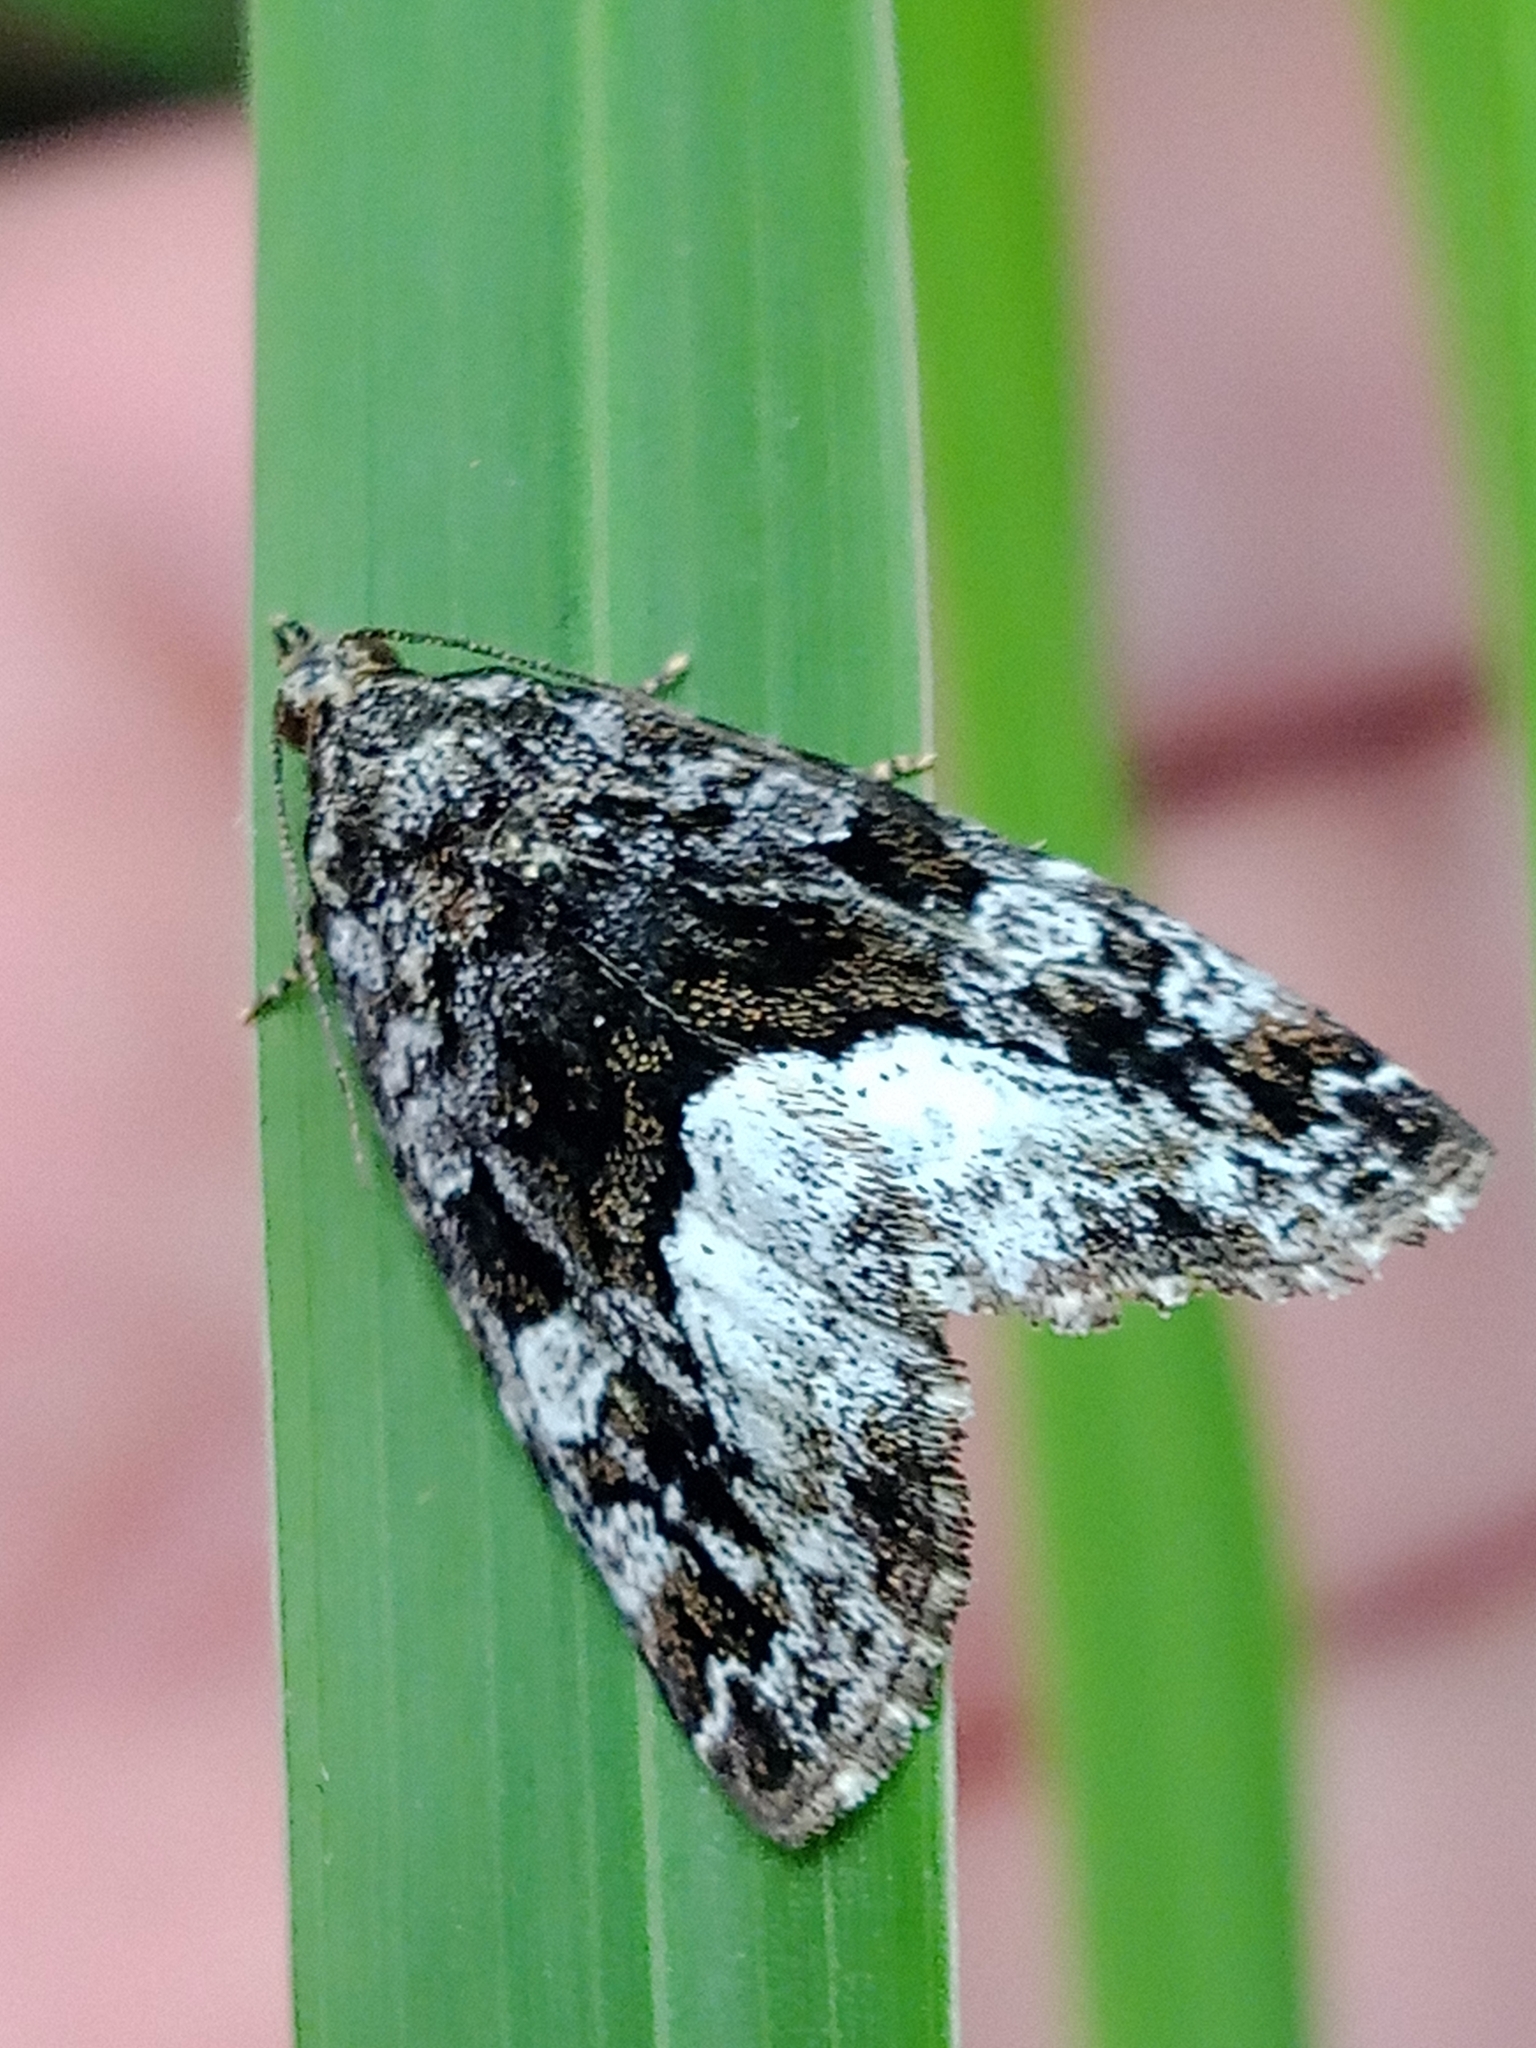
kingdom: Animalia
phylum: Arthropoda
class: Insecta
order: Lepidoptera
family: Noctuidae
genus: Deltote
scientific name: Deltote pygarga
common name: Marbled white spot
